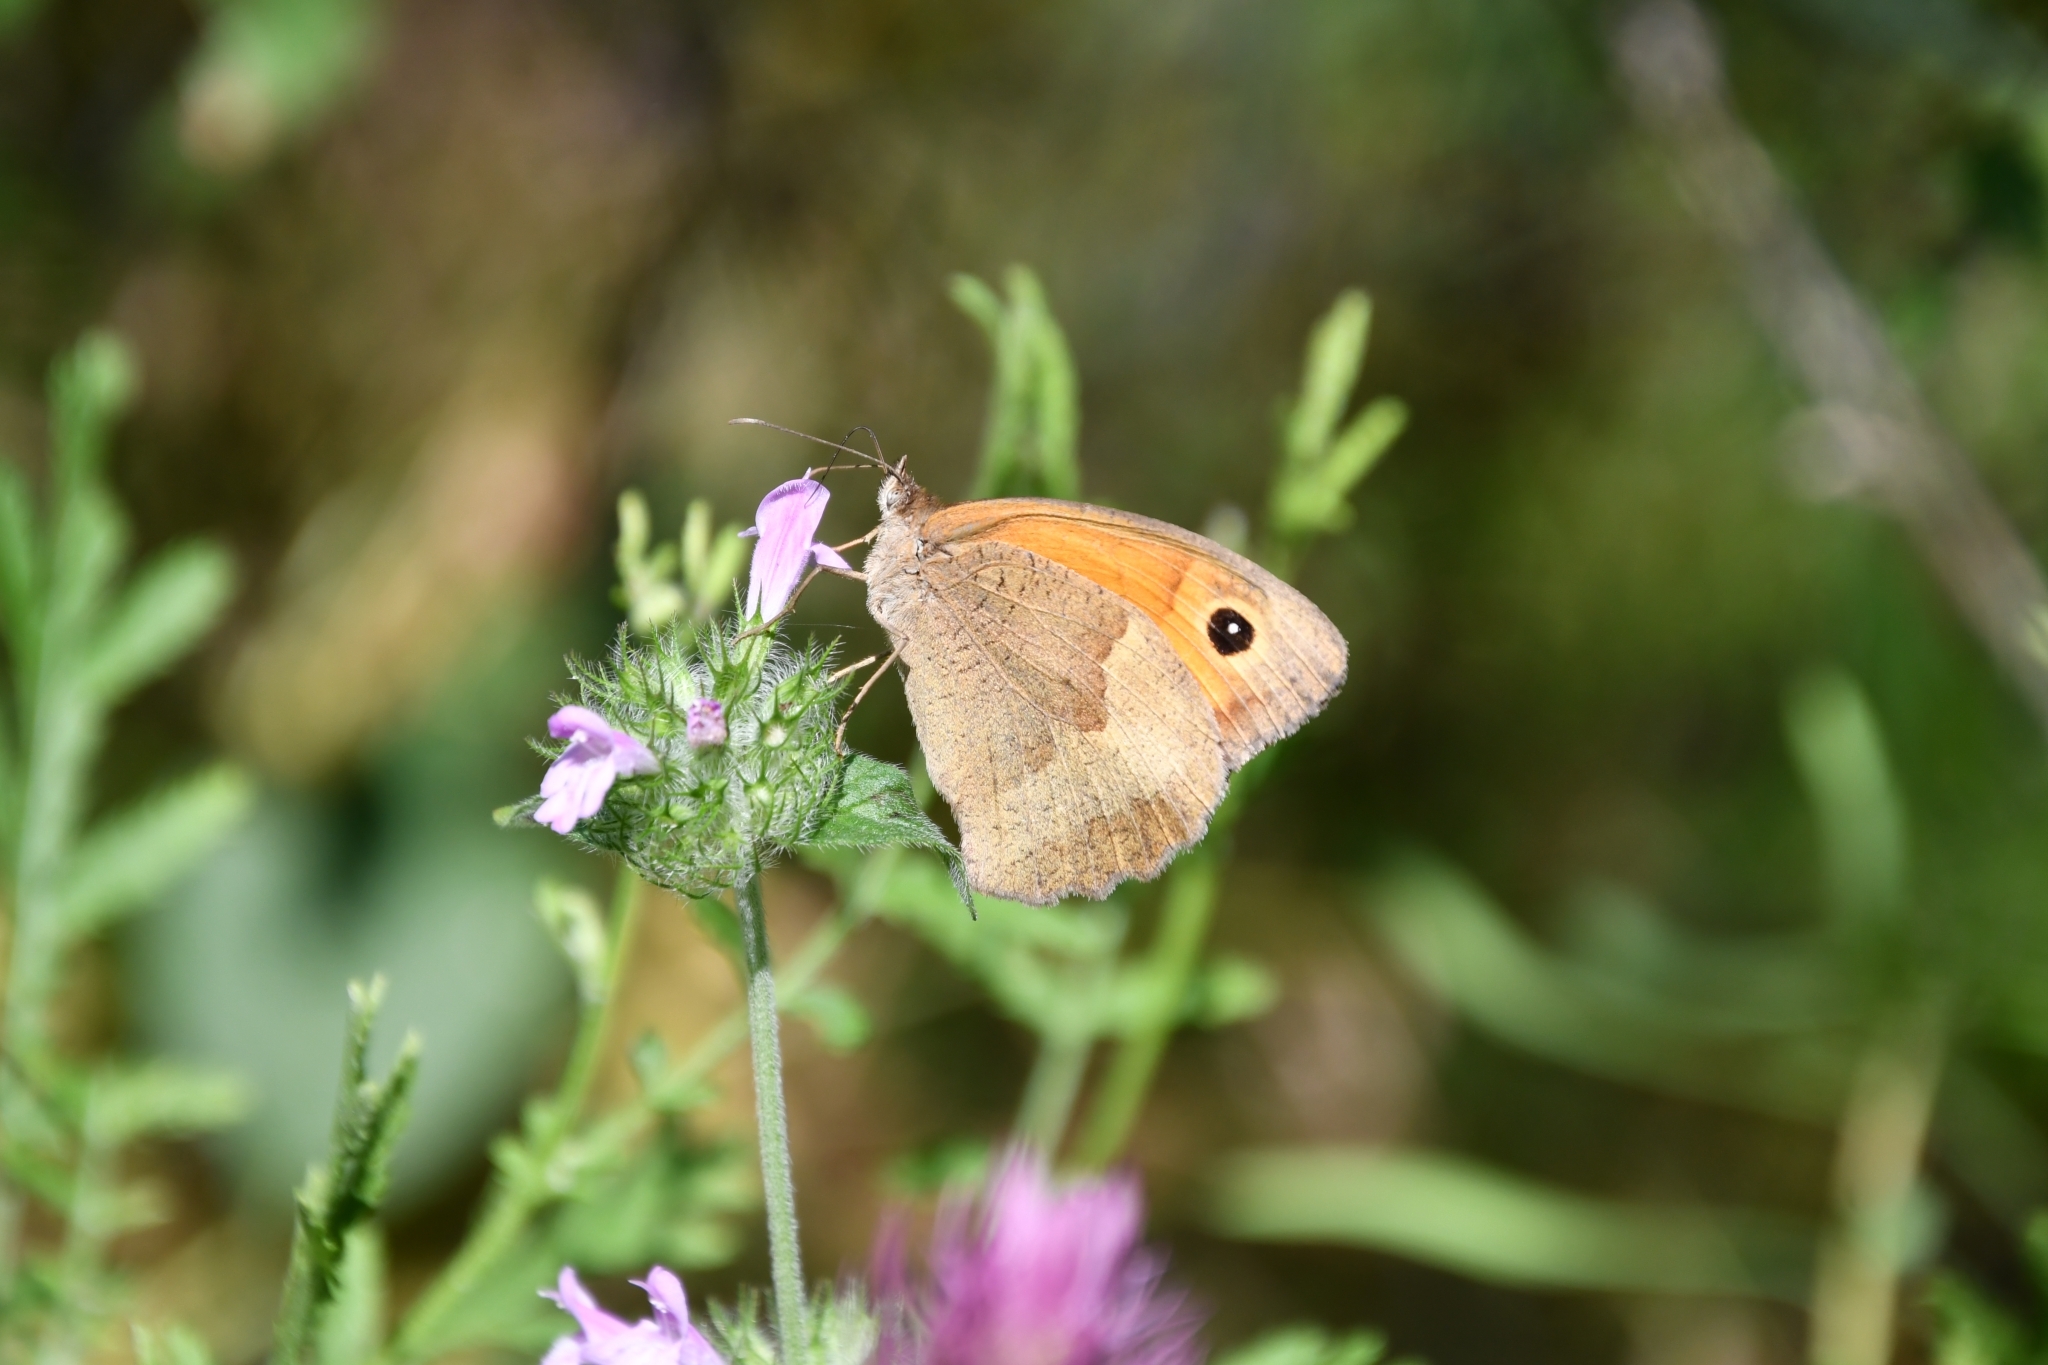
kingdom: Animalia
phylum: Arthropoda
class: Insecta
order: Lepidoptera
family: Nymphalidae
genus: Maniola
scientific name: Maniola jurtina
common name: Meadow brown
